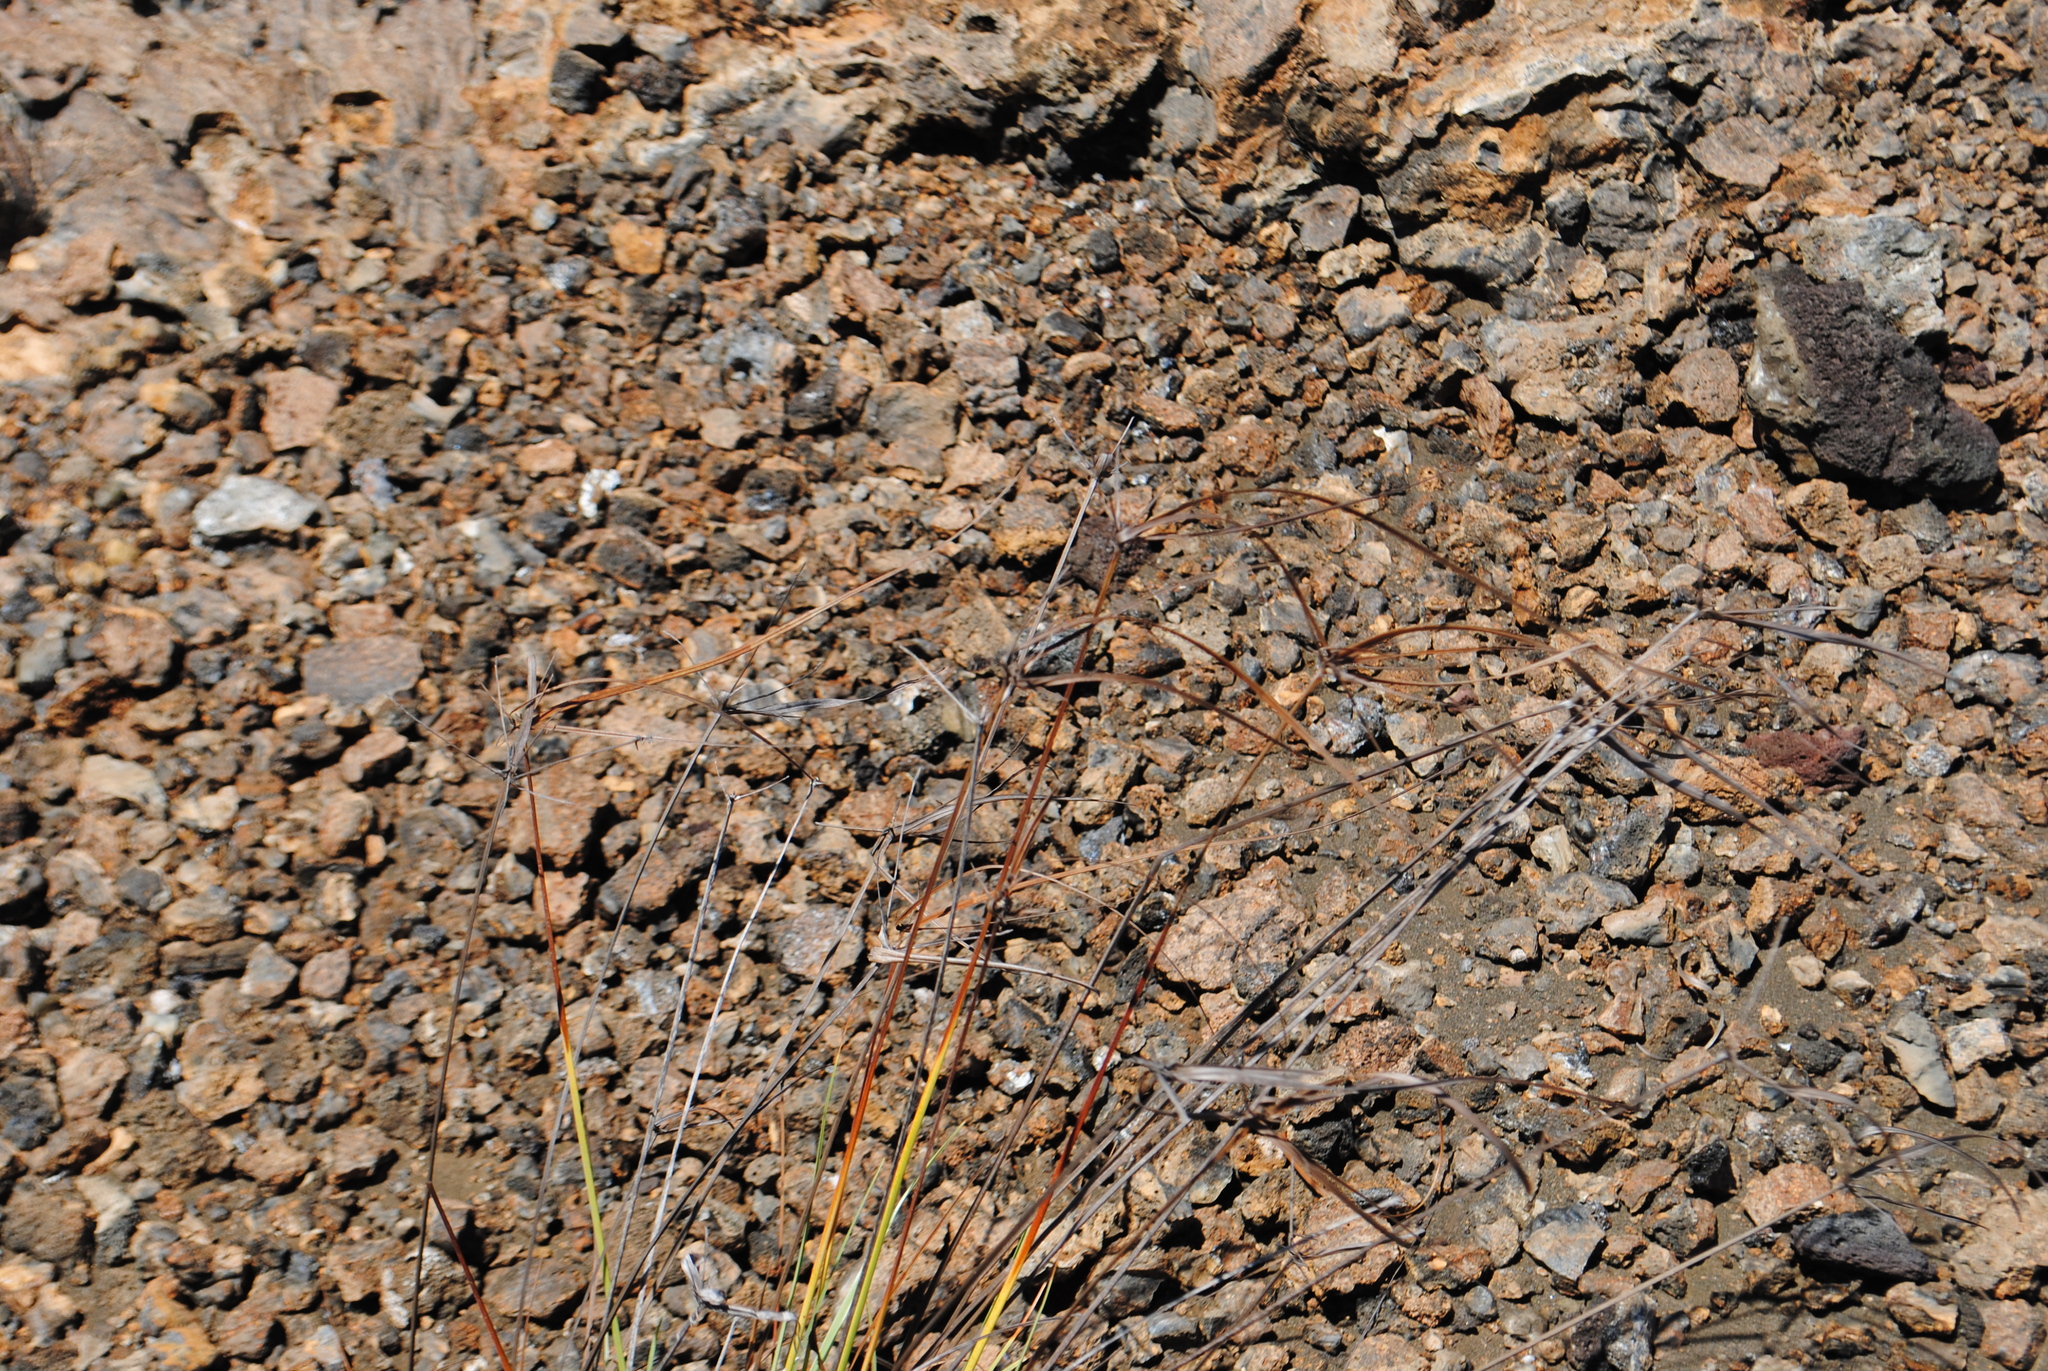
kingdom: Plantae
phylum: Tracheophyta
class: Liliopsida
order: Poales
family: Cyperaceae
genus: Cyperus
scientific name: Cyperus anderssonii
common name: Andersson's sedge
